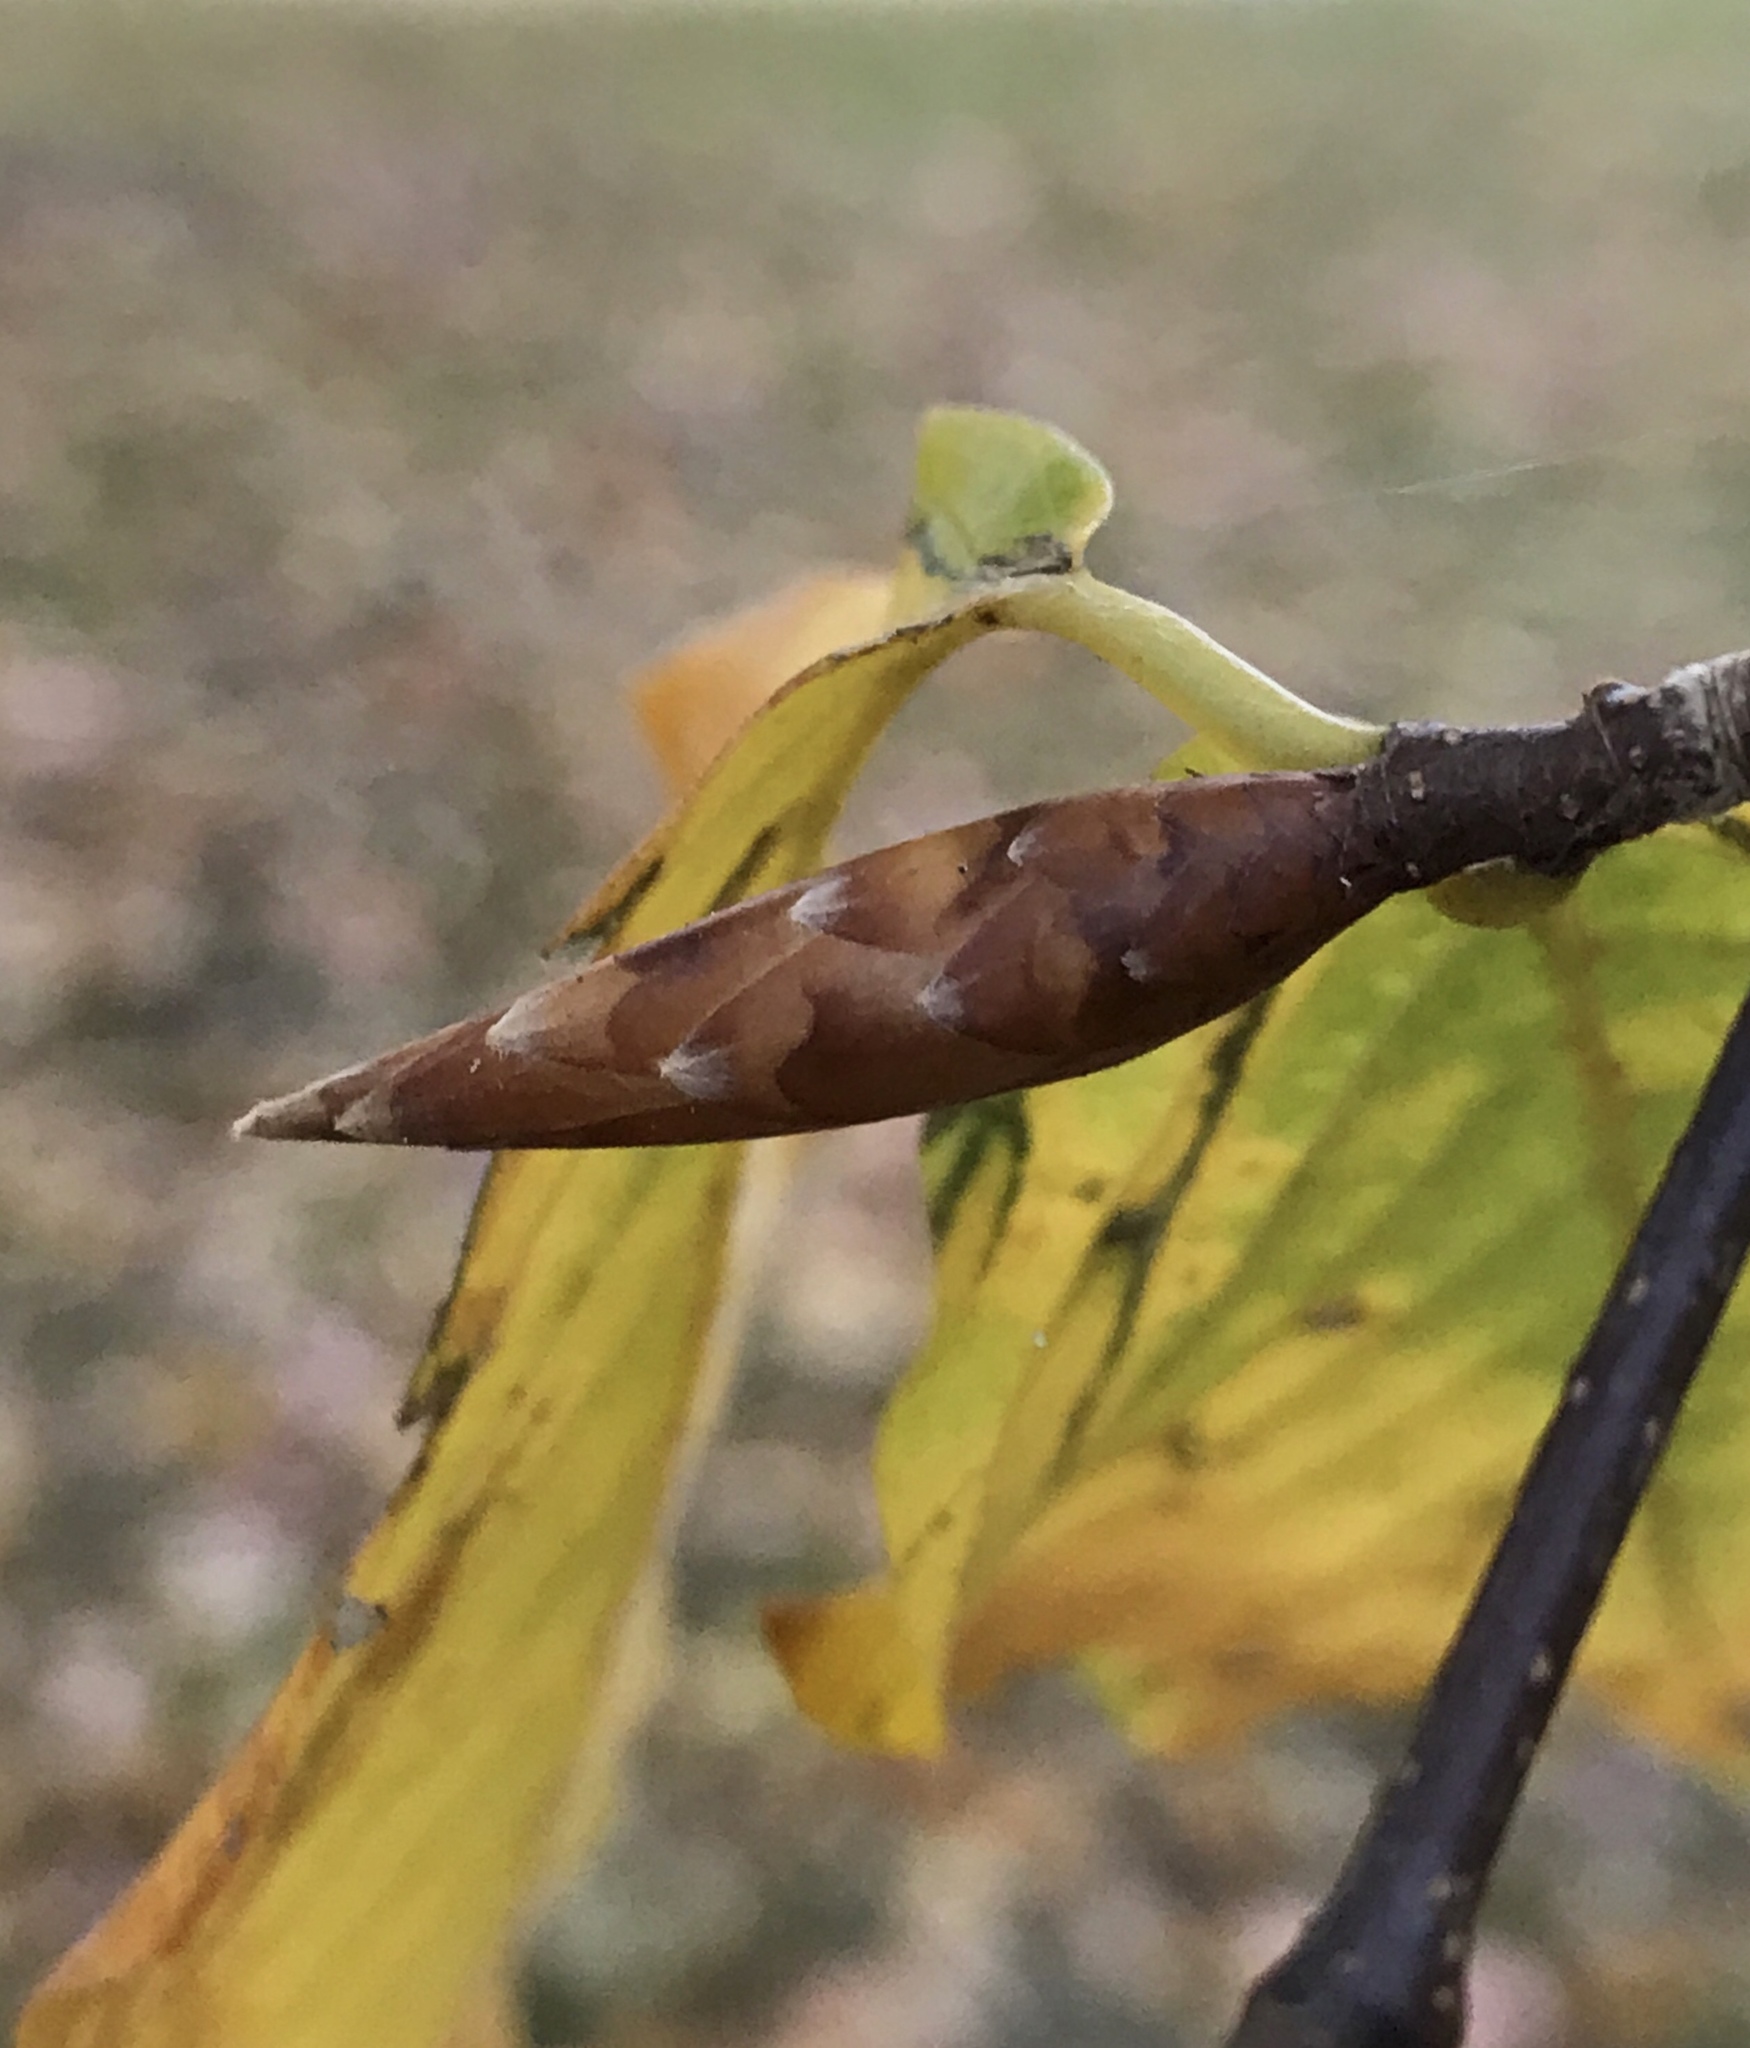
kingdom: Plantae
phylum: Tracheophyta
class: Magnoliopsida
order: Fagales
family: Fagaceae
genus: Fagus
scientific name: Fagus grandifolia
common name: American beech
